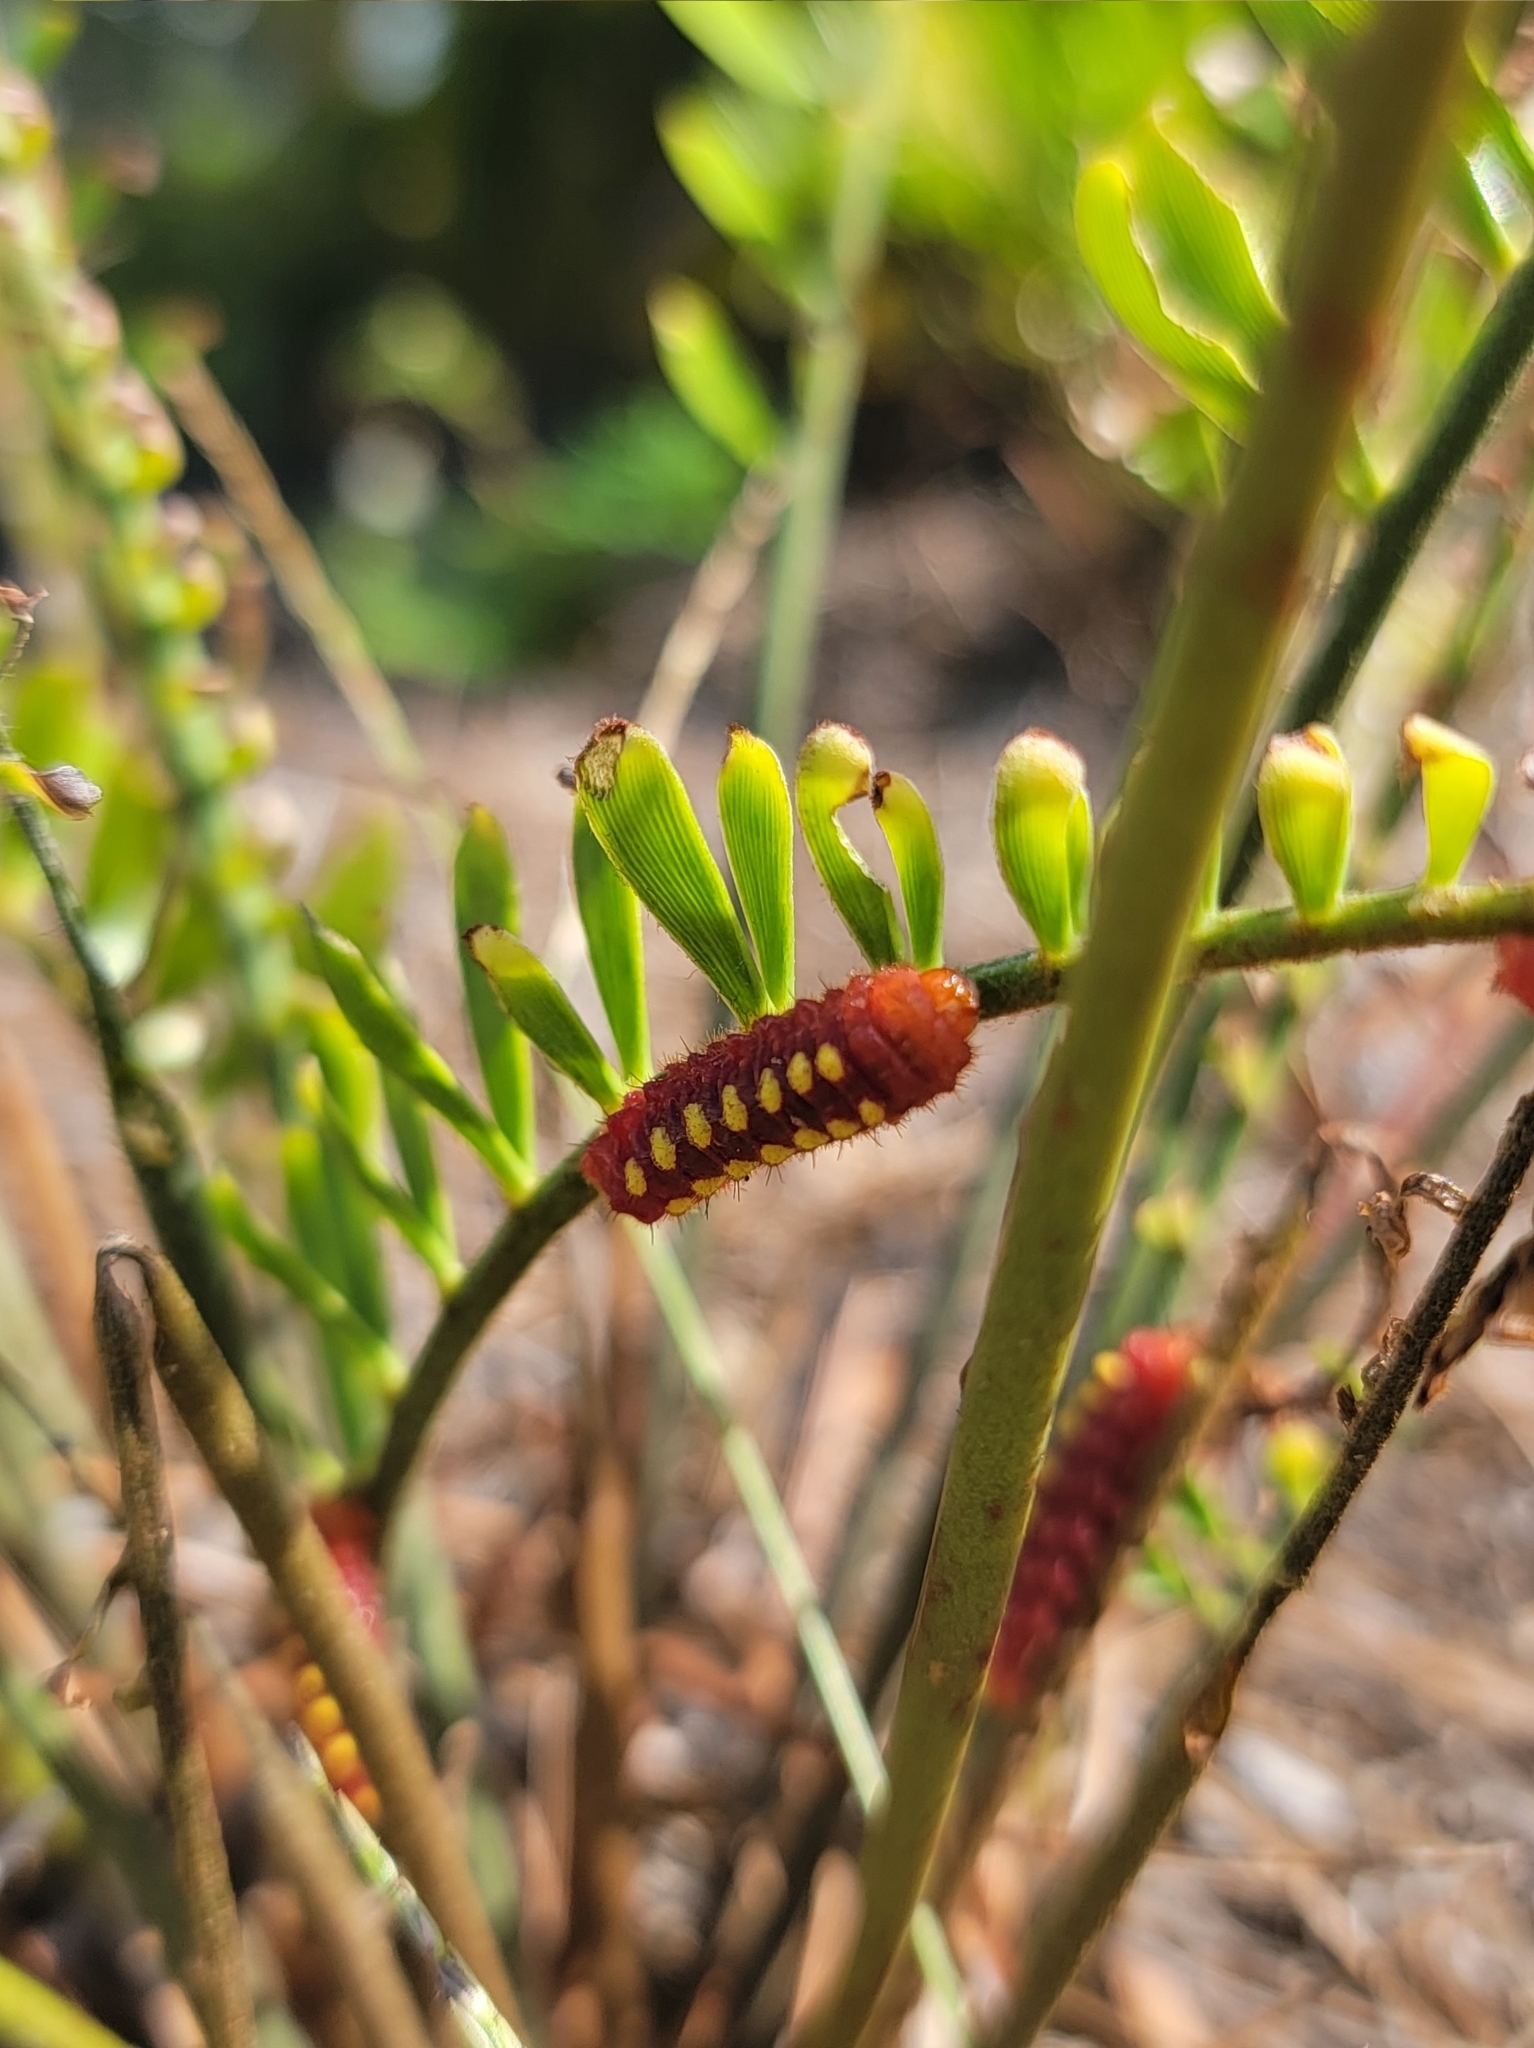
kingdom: Animalia
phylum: Arthropoda
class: Insecta
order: Lepidoptera
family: Lycaenidae
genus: Eumaeus
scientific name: Eumaeus atala
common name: Atala
